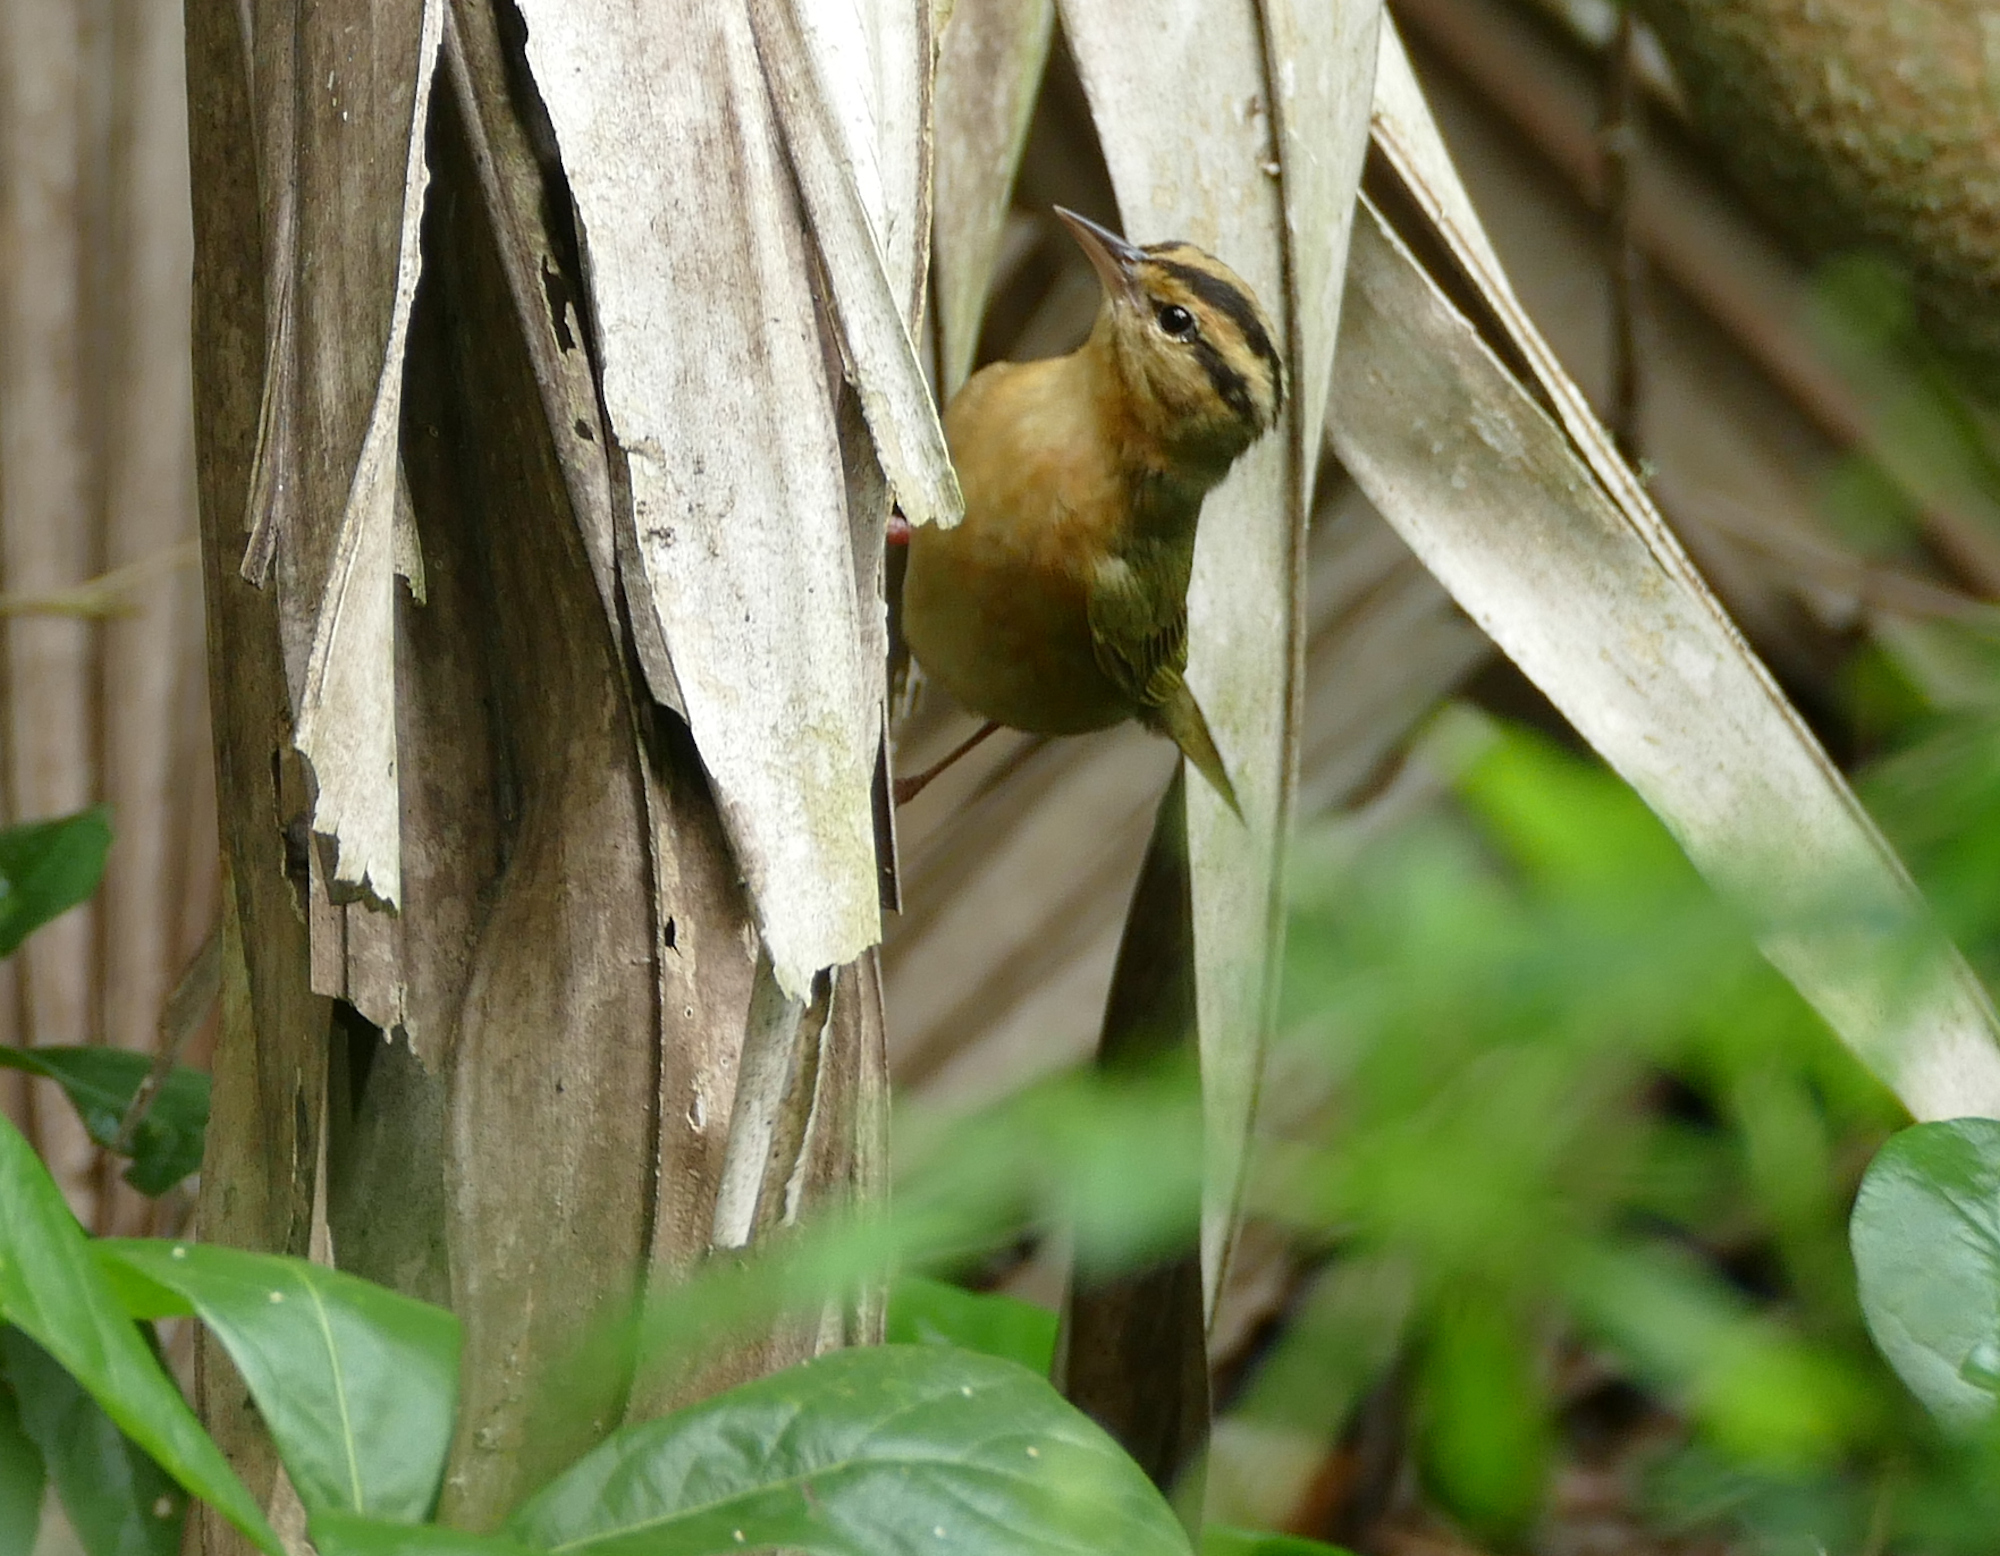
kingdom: Animalia
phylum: Chordata
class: Aves
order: Passeriformes
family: Parulidae
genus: Helmitheros
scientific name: Helmitheros vermivorum
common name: Worm-eating warbler
